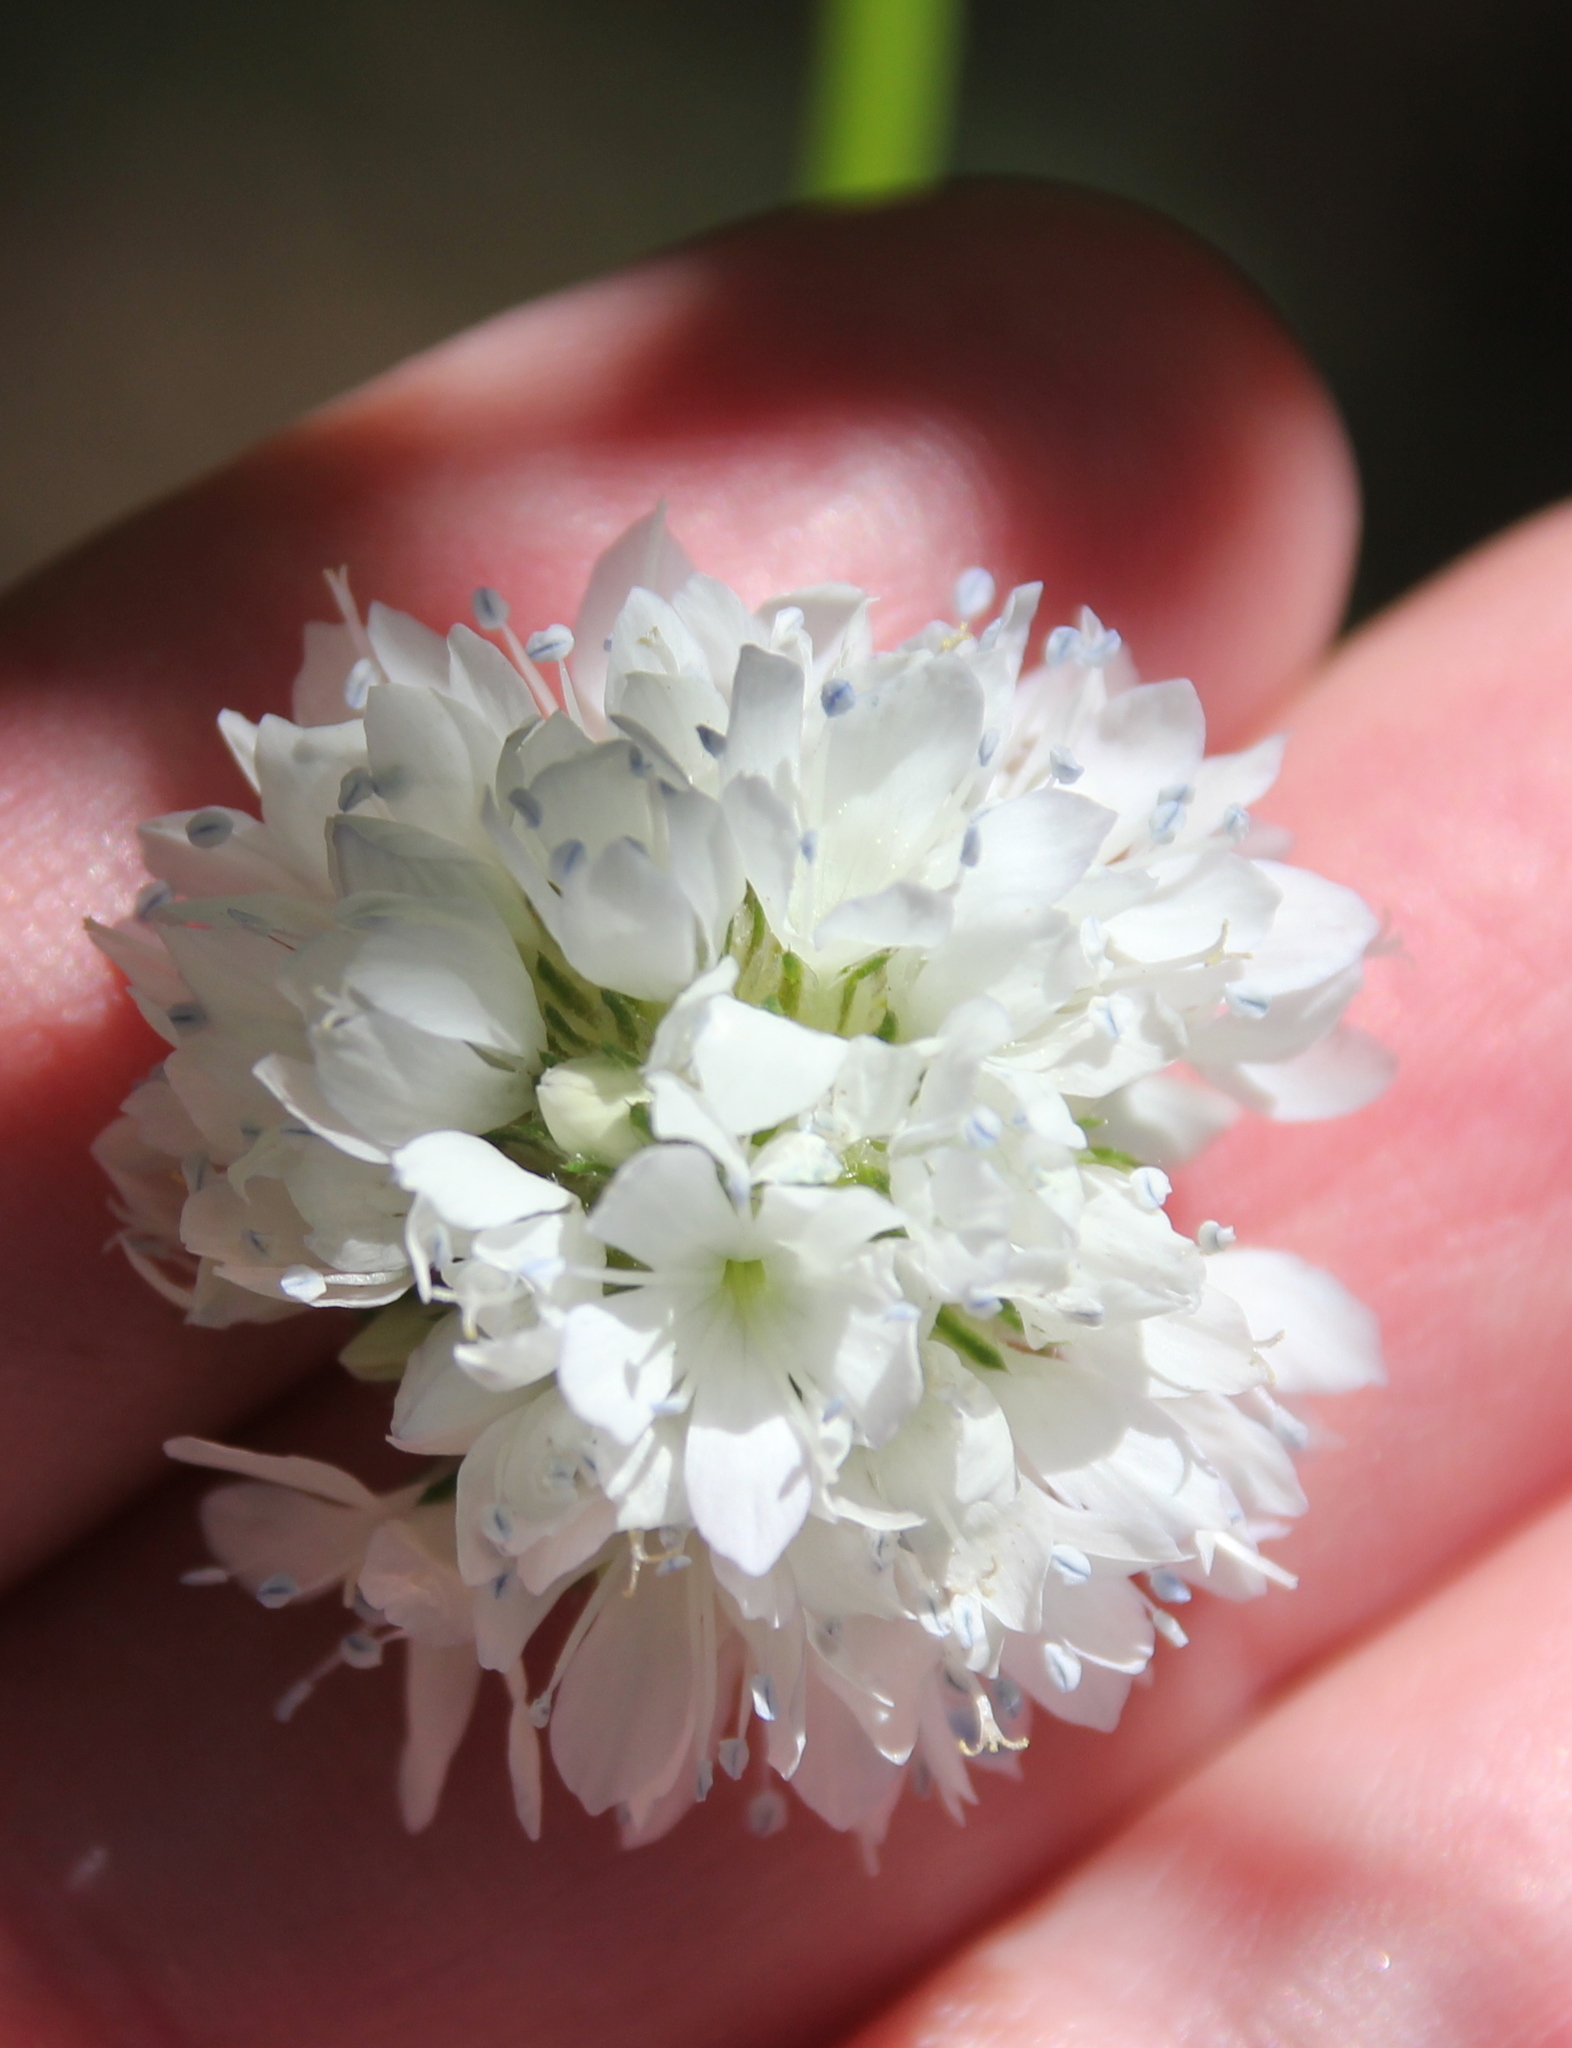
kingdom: Plantae
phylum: Tracheophyta
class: Magnoliopsida
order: Ericales
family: Polemoniaceae
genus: Gilia
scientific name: Gilia capitata
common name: Bluehead gilia
